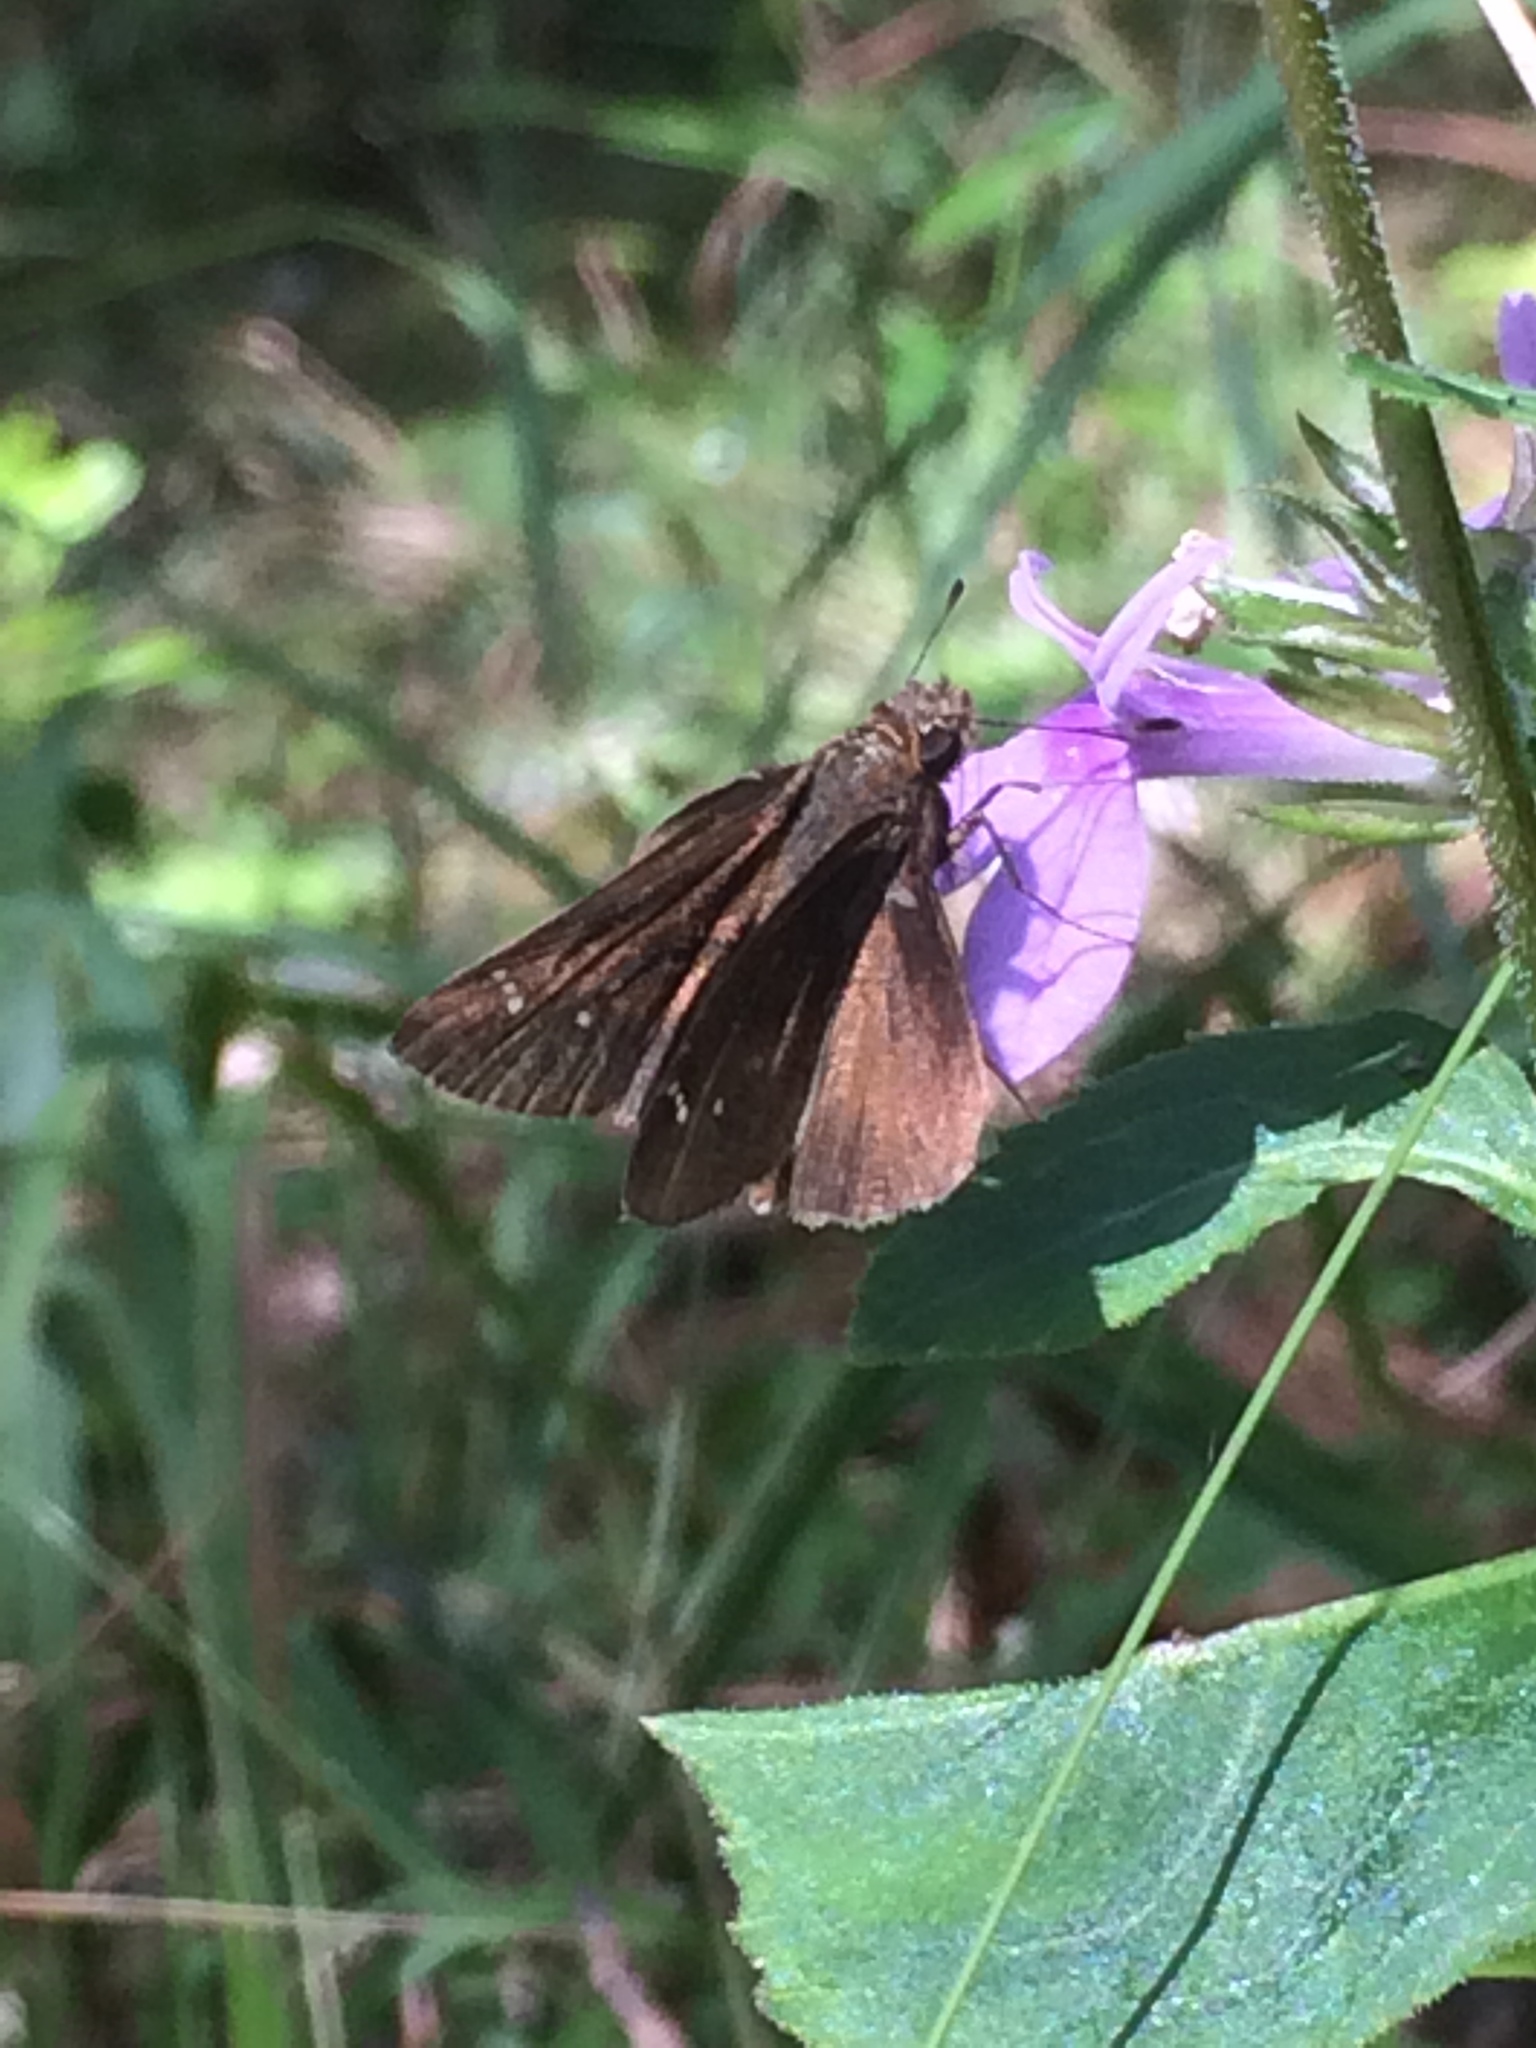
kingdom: Animalia
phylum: Arthropoda
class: Insecta
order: Lepidoptera
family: Hesperiidae
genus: Lerema
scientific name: Lerema accius
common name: Clouded skipper
